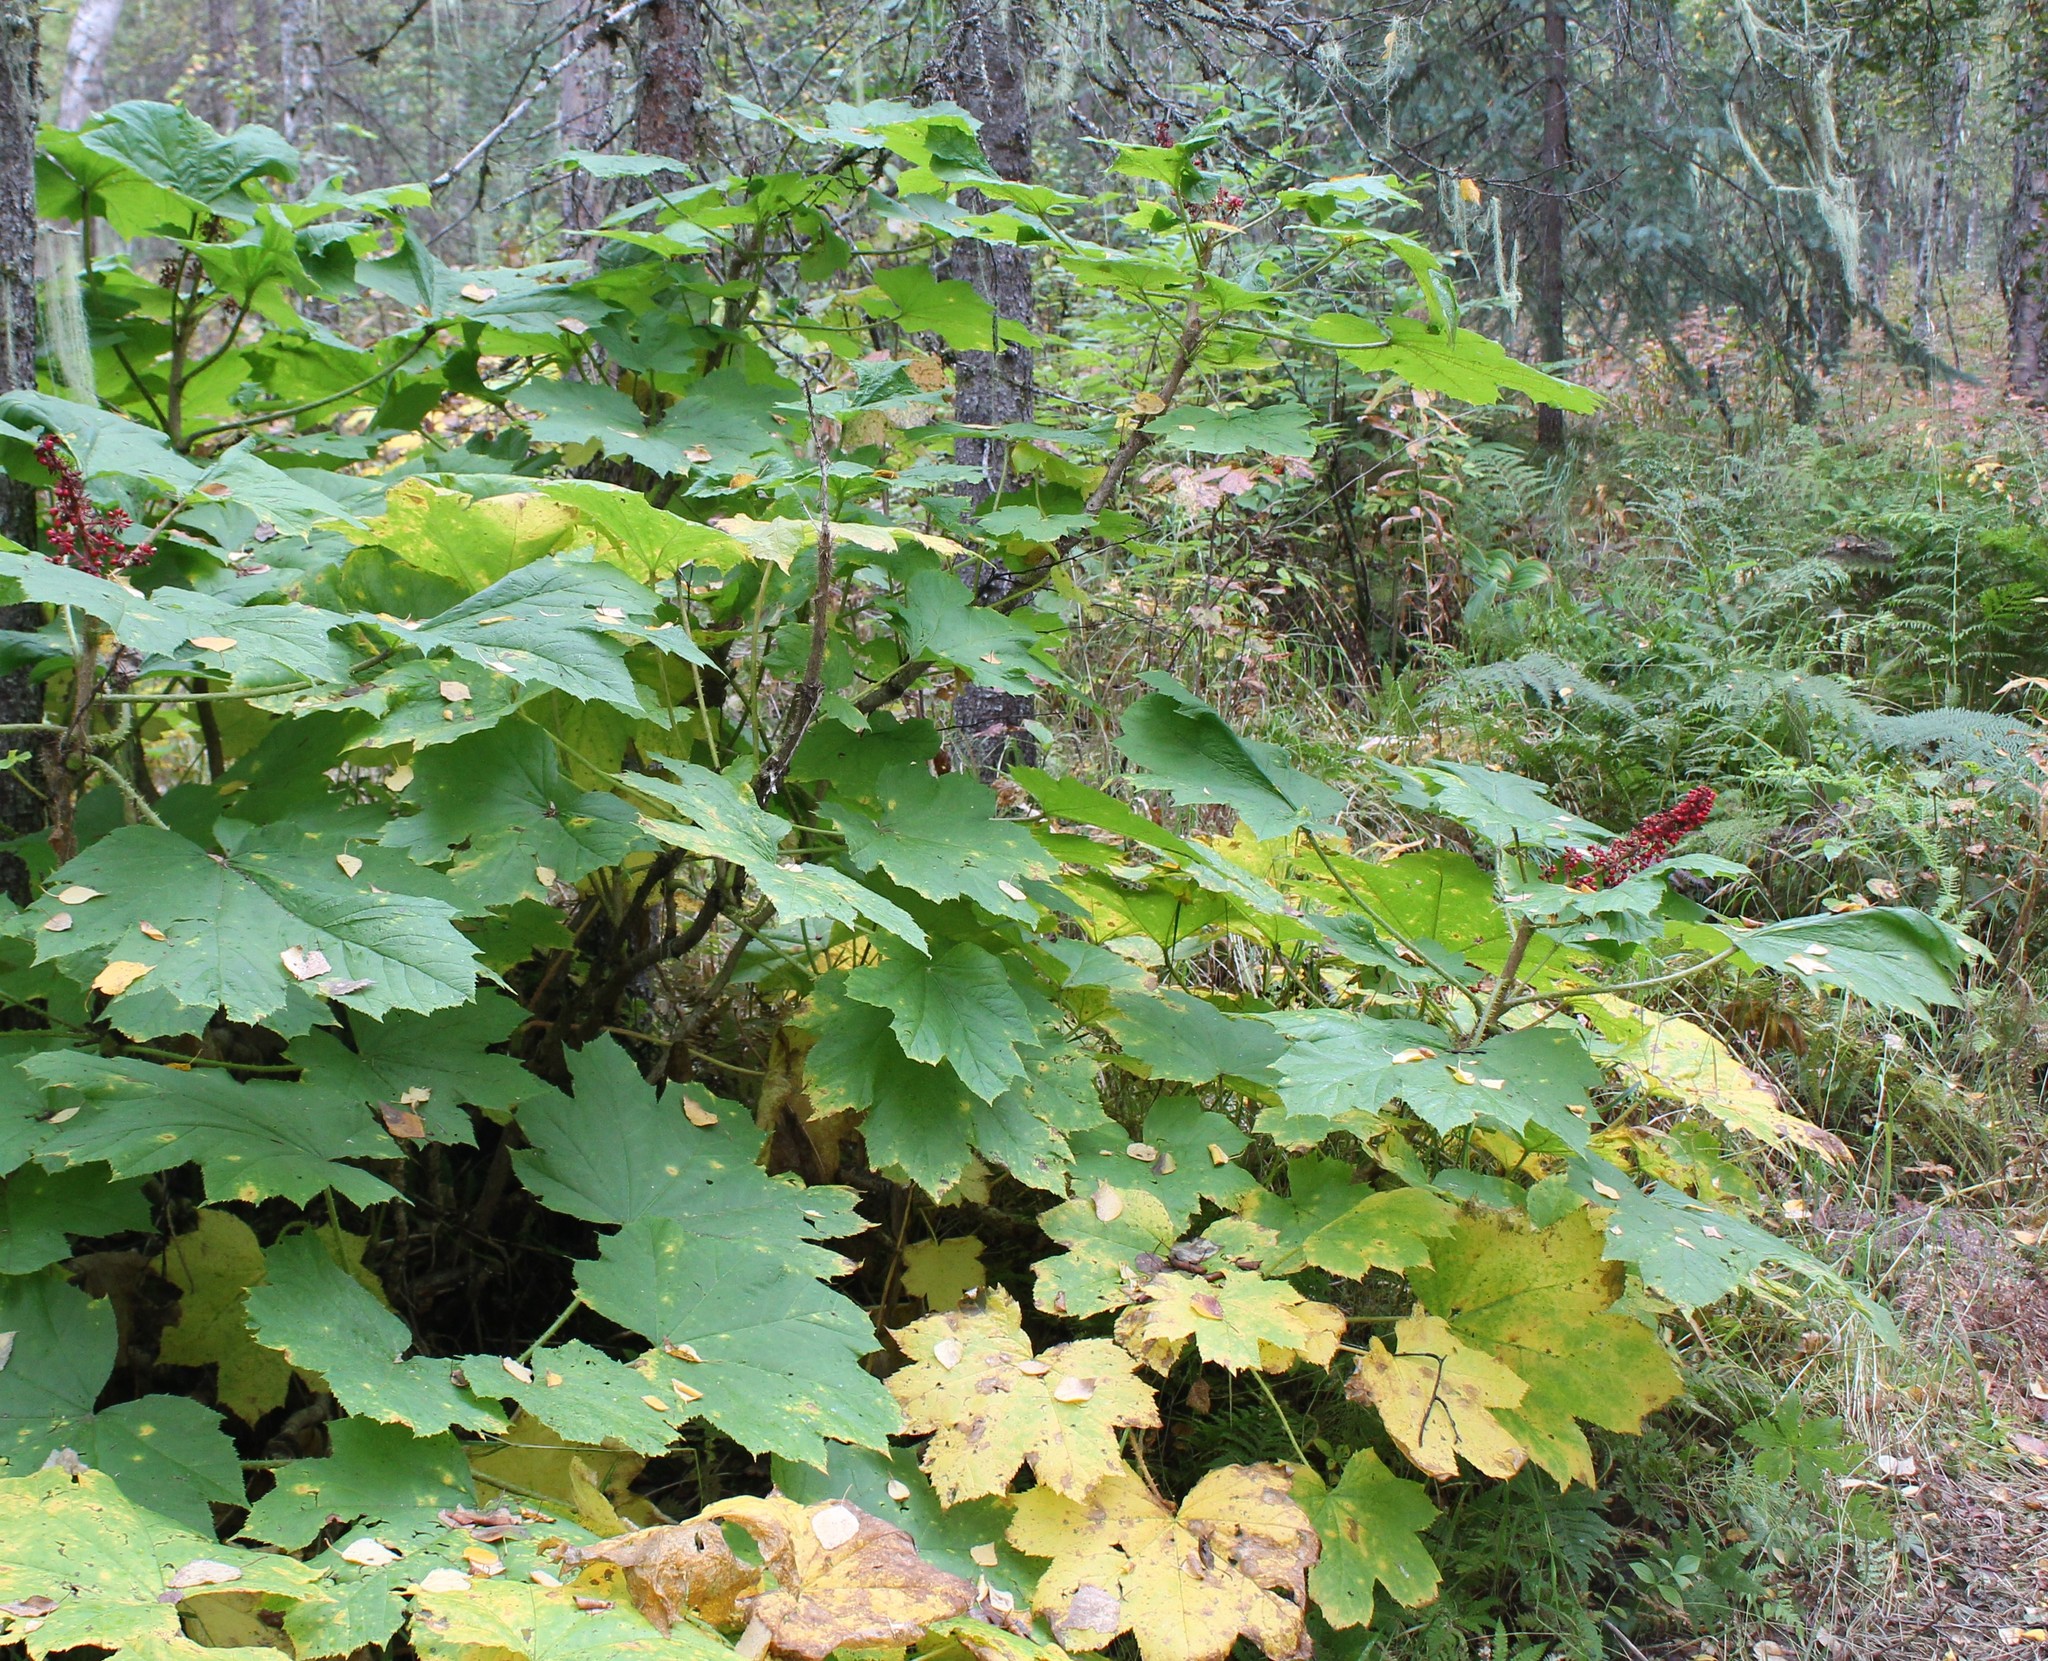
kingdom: Plantae
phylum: Tracheophyta
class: Magnoliopsida
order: Apiales
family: Araliaceae
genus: Oplopanax
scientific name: Oplopanax horridus
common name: Devil's walking-stick
